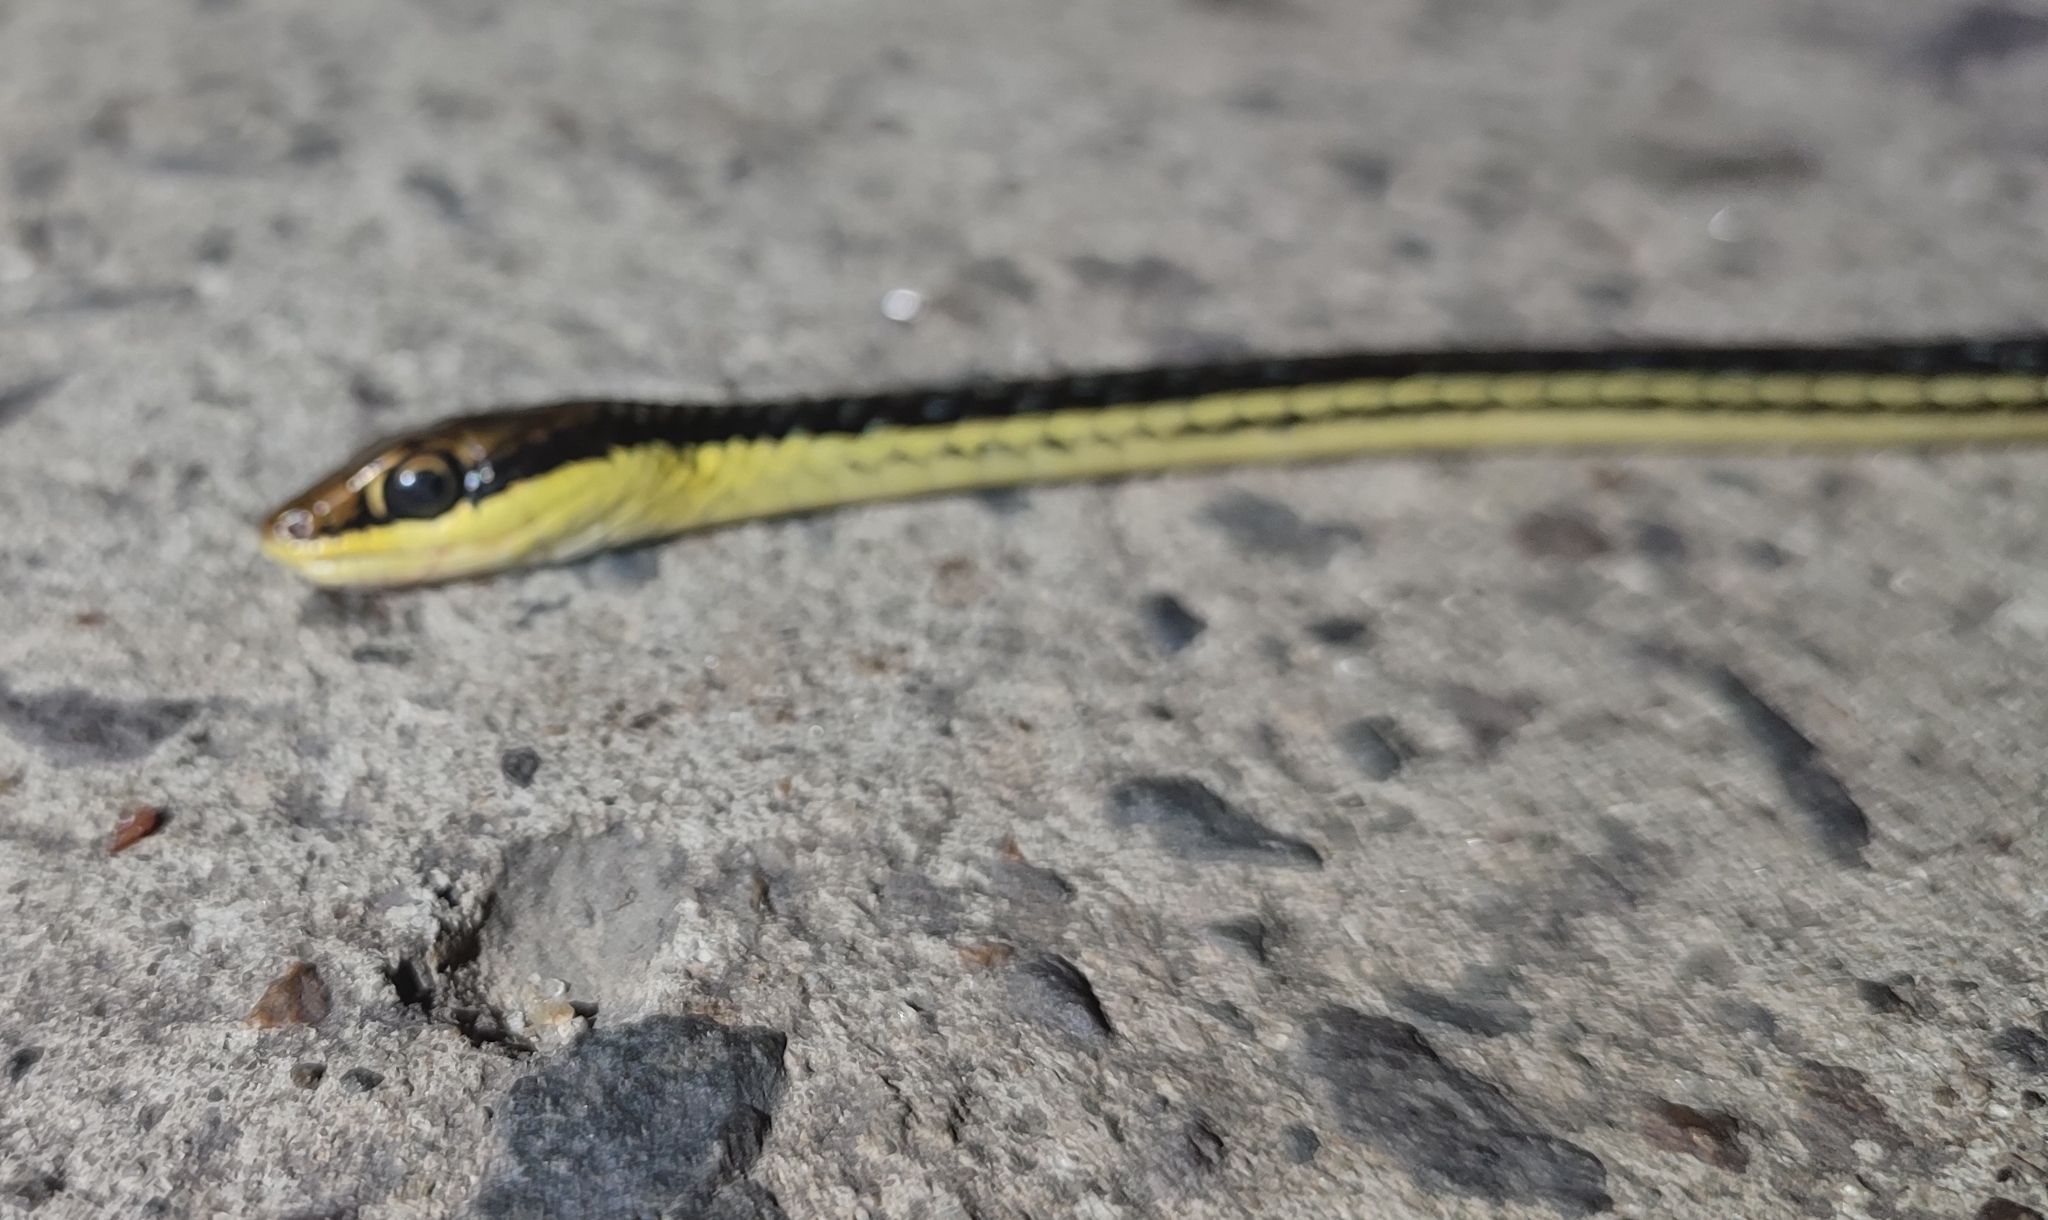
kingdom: Animalia
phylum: Chordata
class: Squamata
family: Colubridae
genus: Dendrelaphis
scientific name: Dendrelaphis pictus
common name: Indonesian bronze-back
